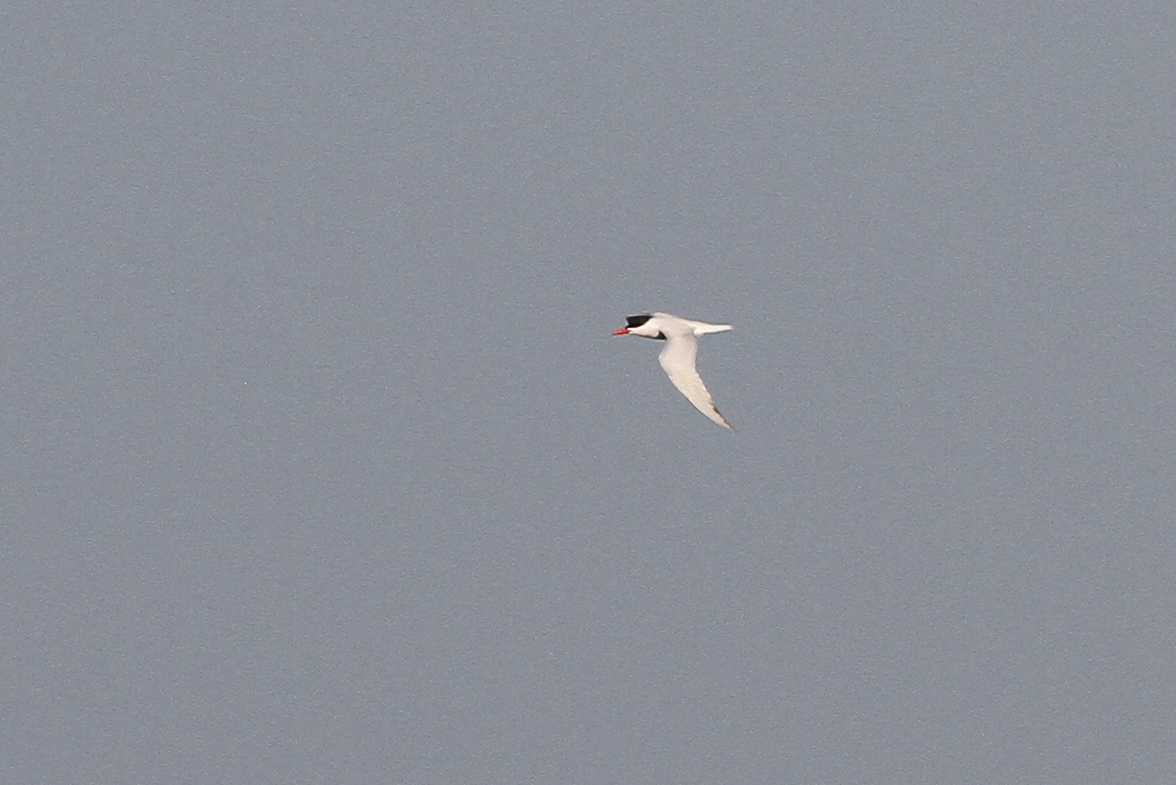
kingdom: Animalia
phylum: Chordata
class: Aves
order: Charadriiformes
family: Laridae
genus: Hydroprogne
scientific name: Hydroprogne caspia
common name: Caspian tern
